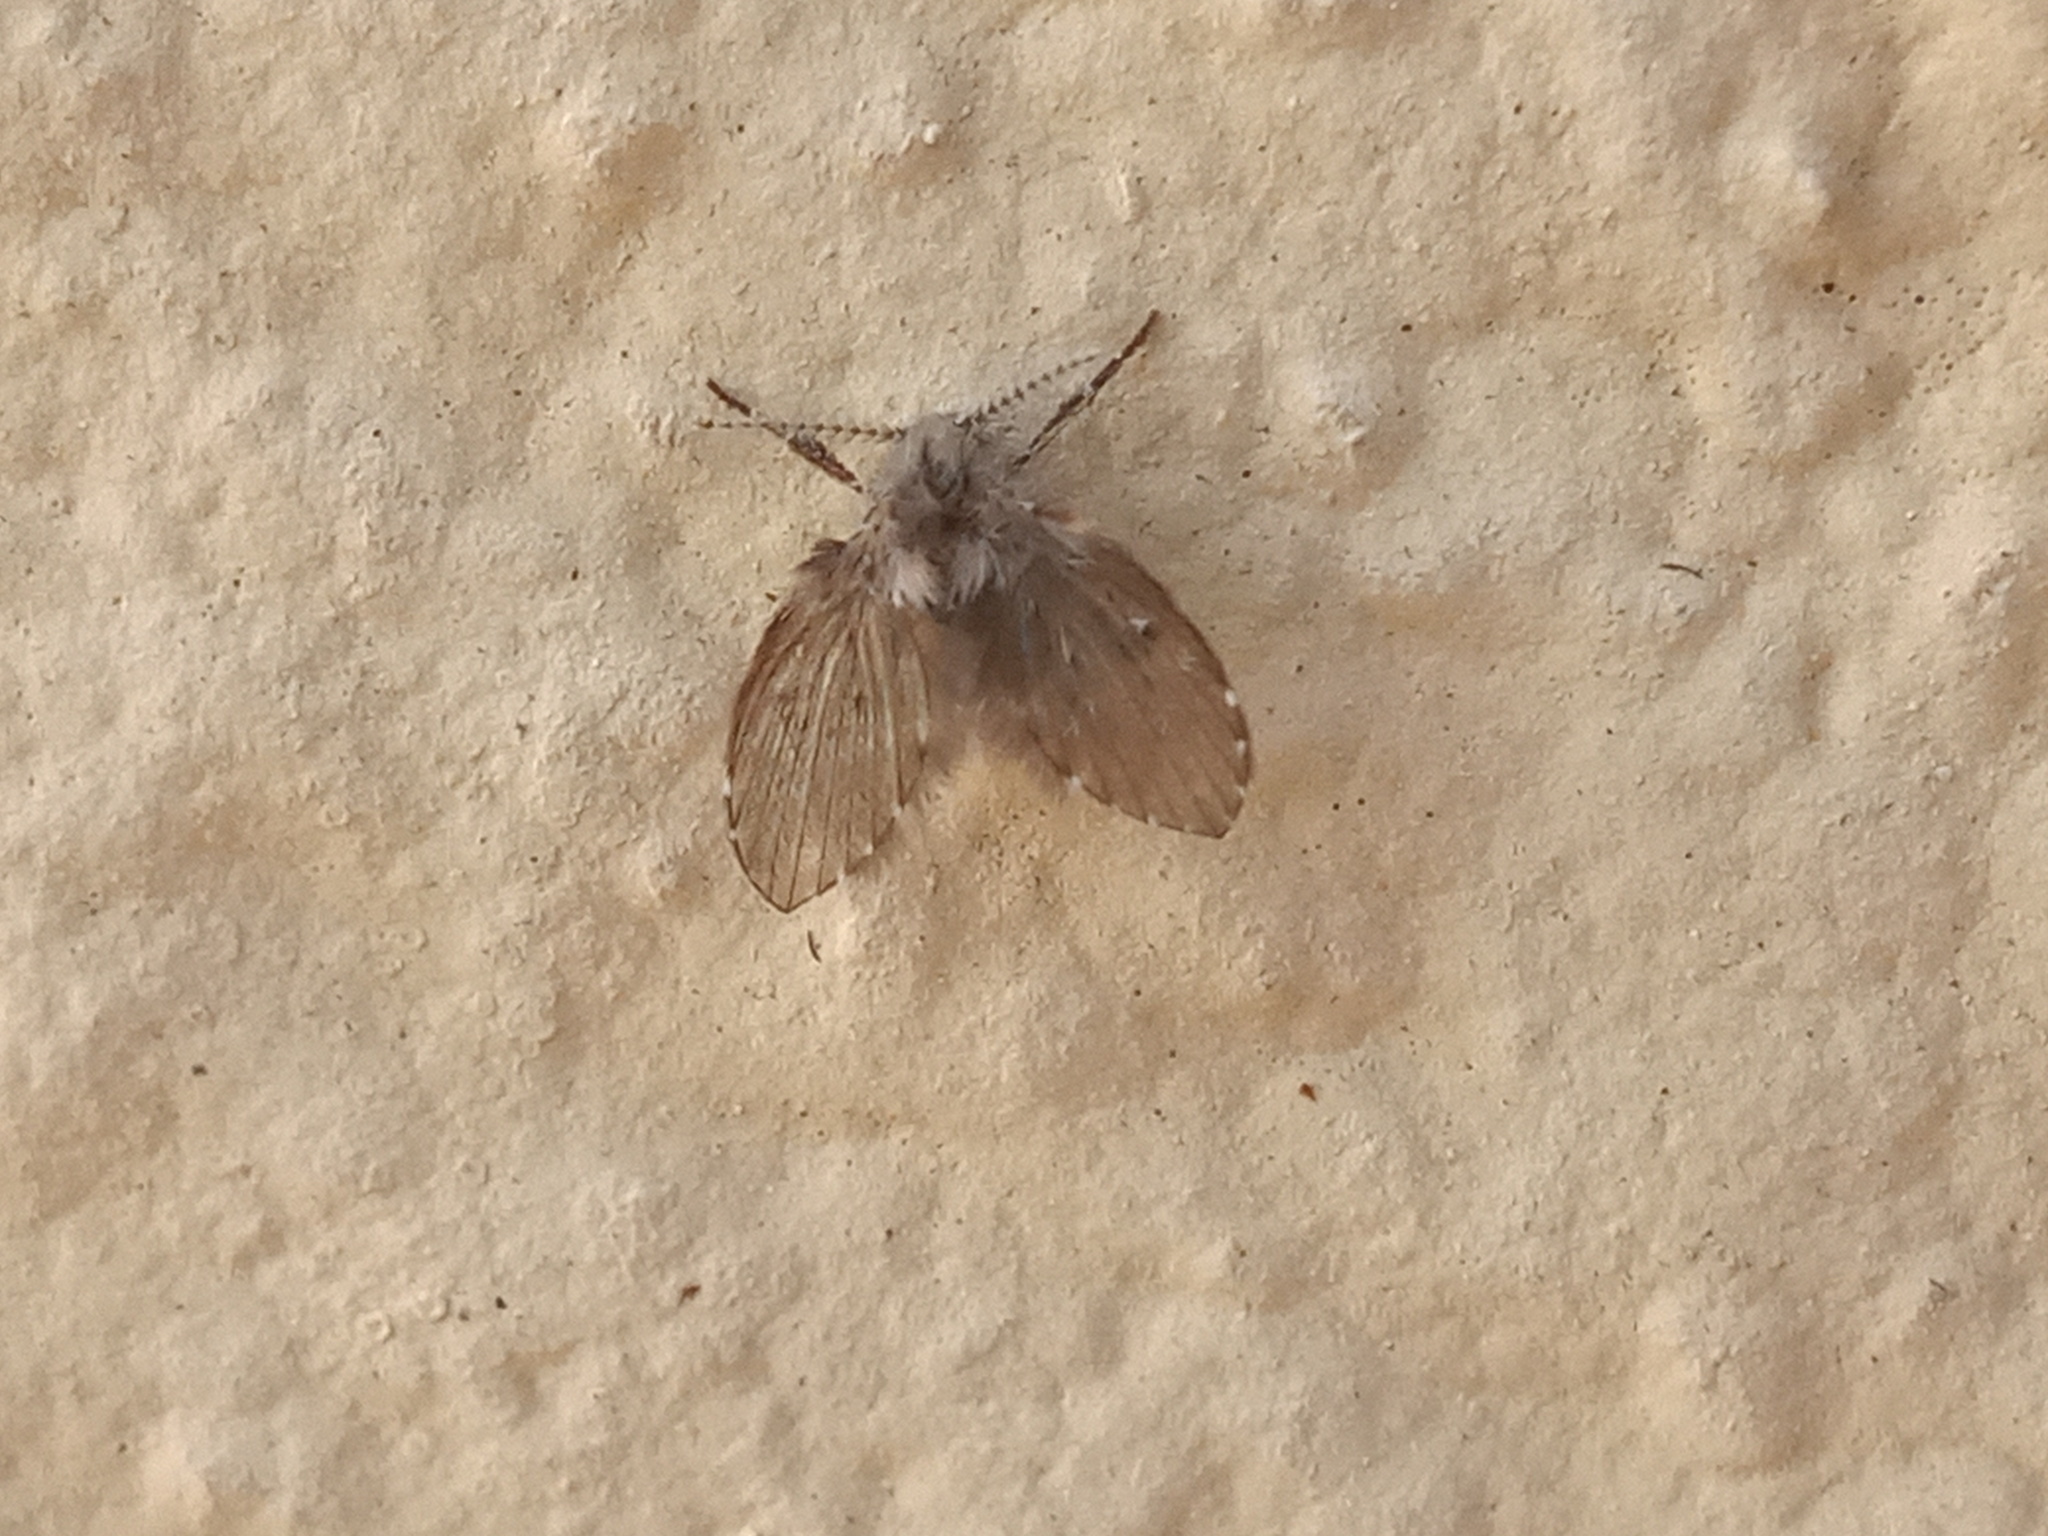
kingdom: Animalia
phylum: Arthropoda
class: Insecta
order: Diptera
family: Psychodidae
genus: Clogmia
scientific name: Clogmia albipunctatus
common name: White-spotted moth fly
